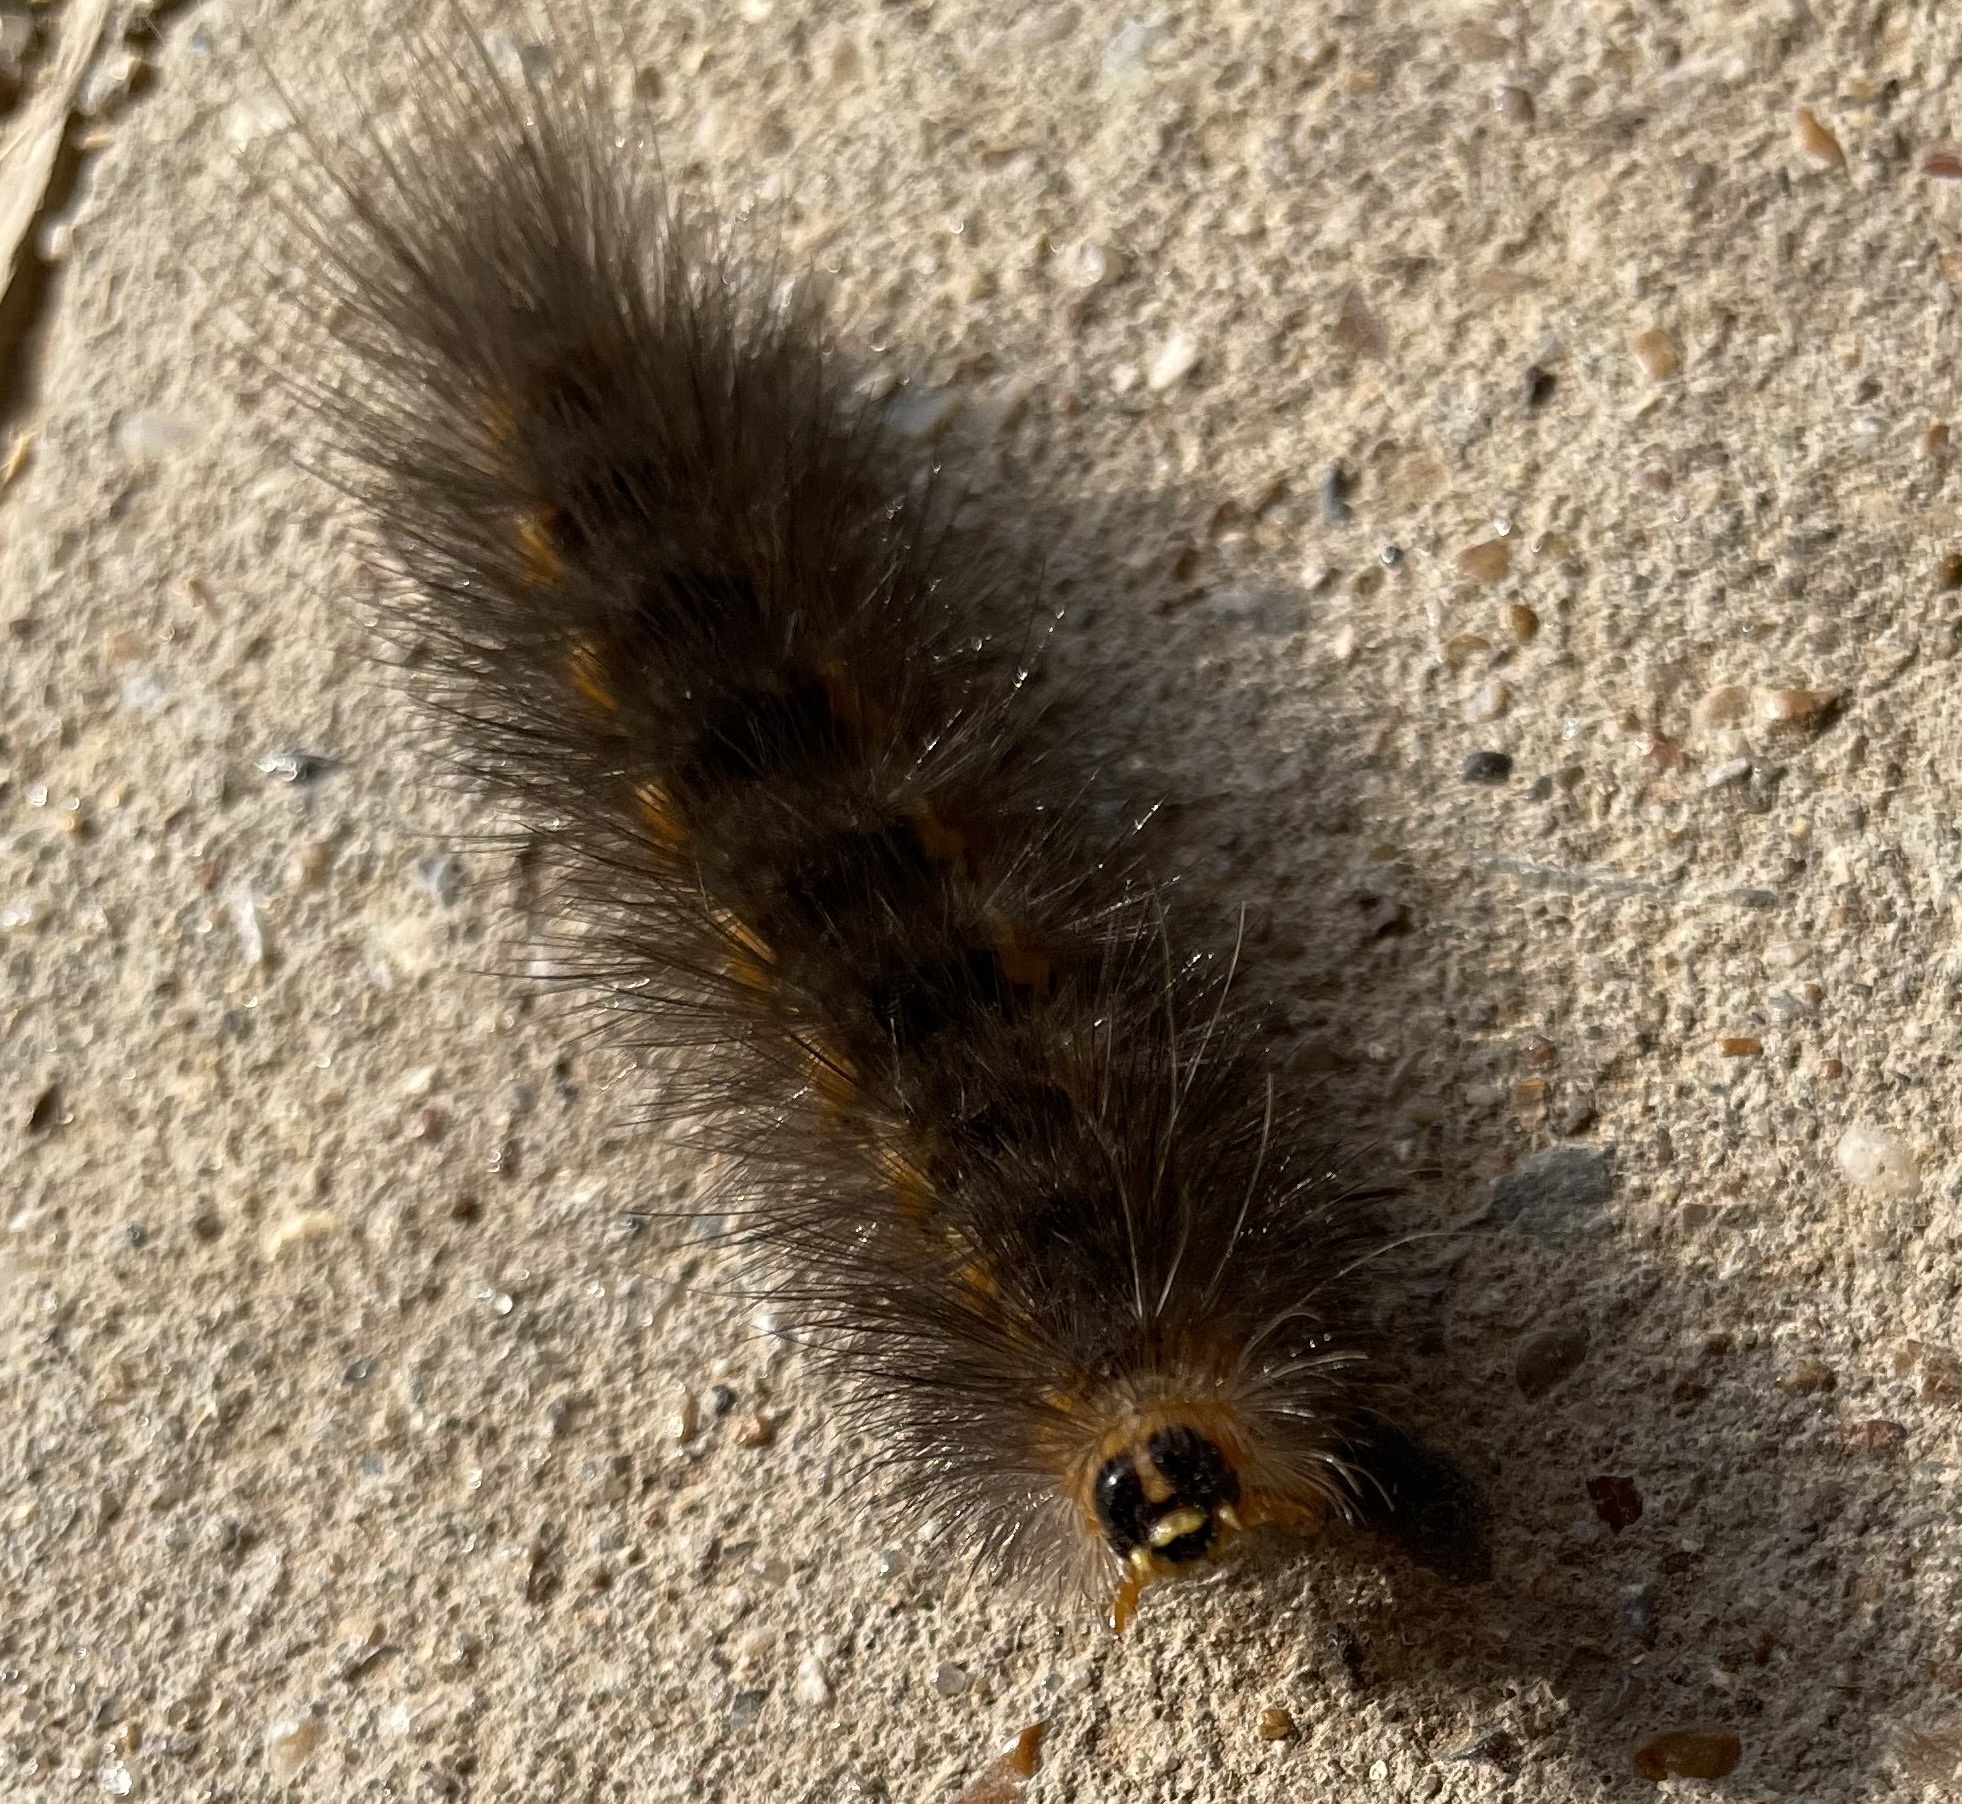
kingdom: Animalia
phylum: Arthropoda
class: Insecta
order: Lepidoptera
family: Erebidae
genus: Estigmene
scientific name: Estigmene acrea
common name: Salt marsh moth
